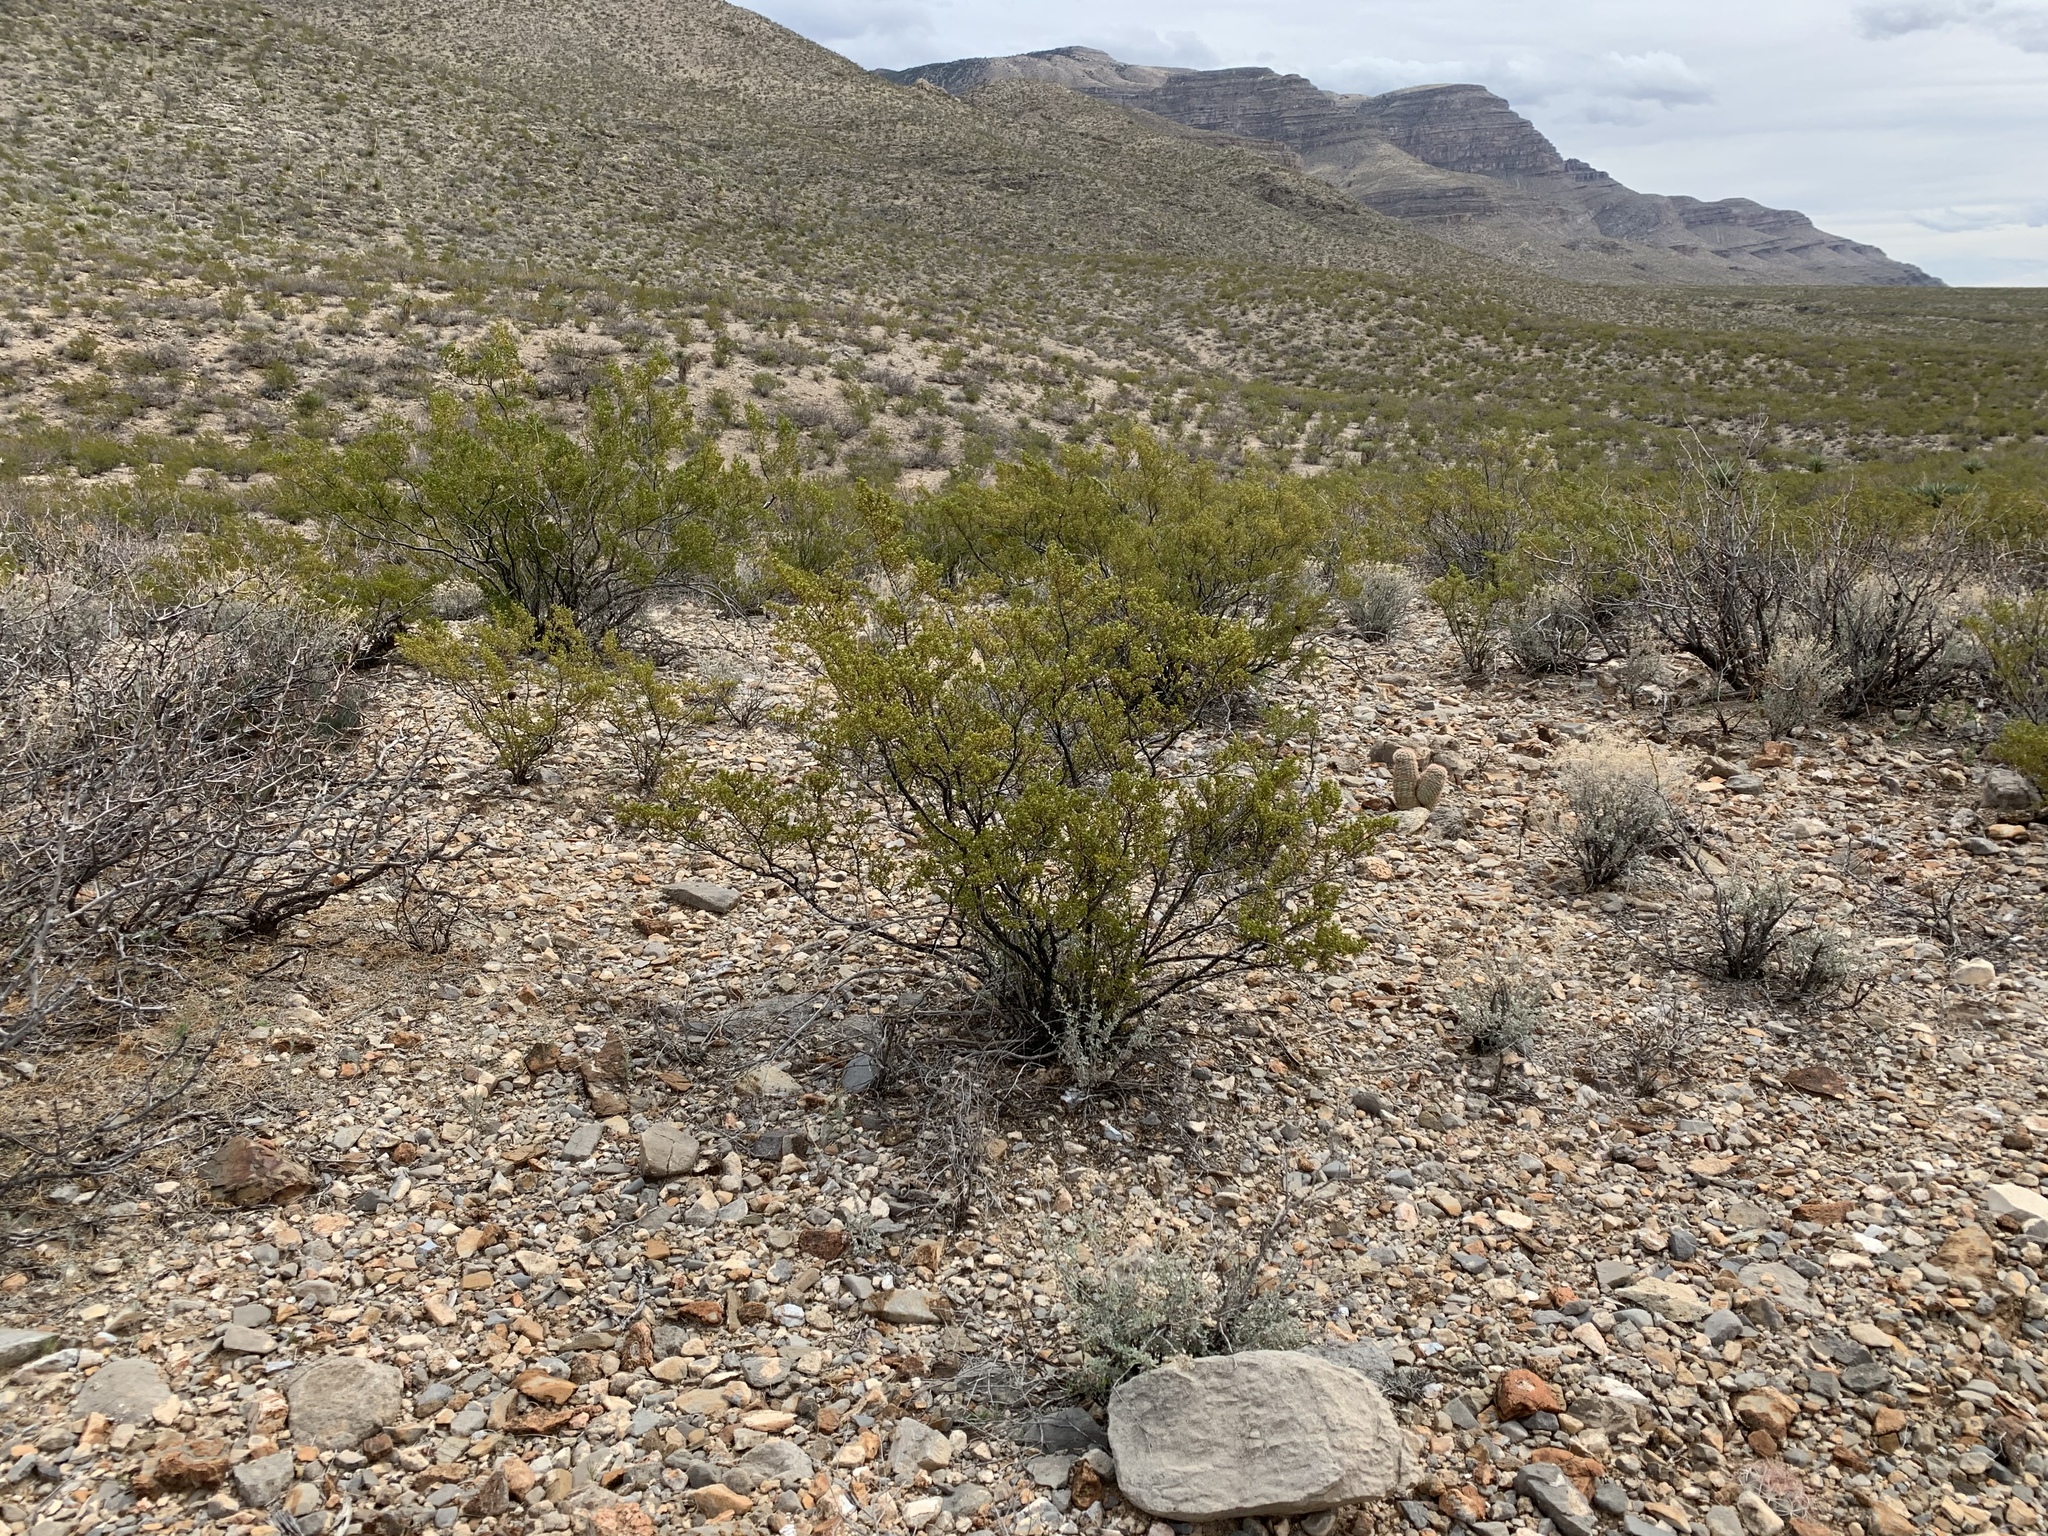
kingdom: Plantae
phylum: Tracheophyta
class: Magnoliopsida
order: Zygophyllales
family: Zygophyllaceae
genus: Larrea
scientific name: Larrea tridentata
